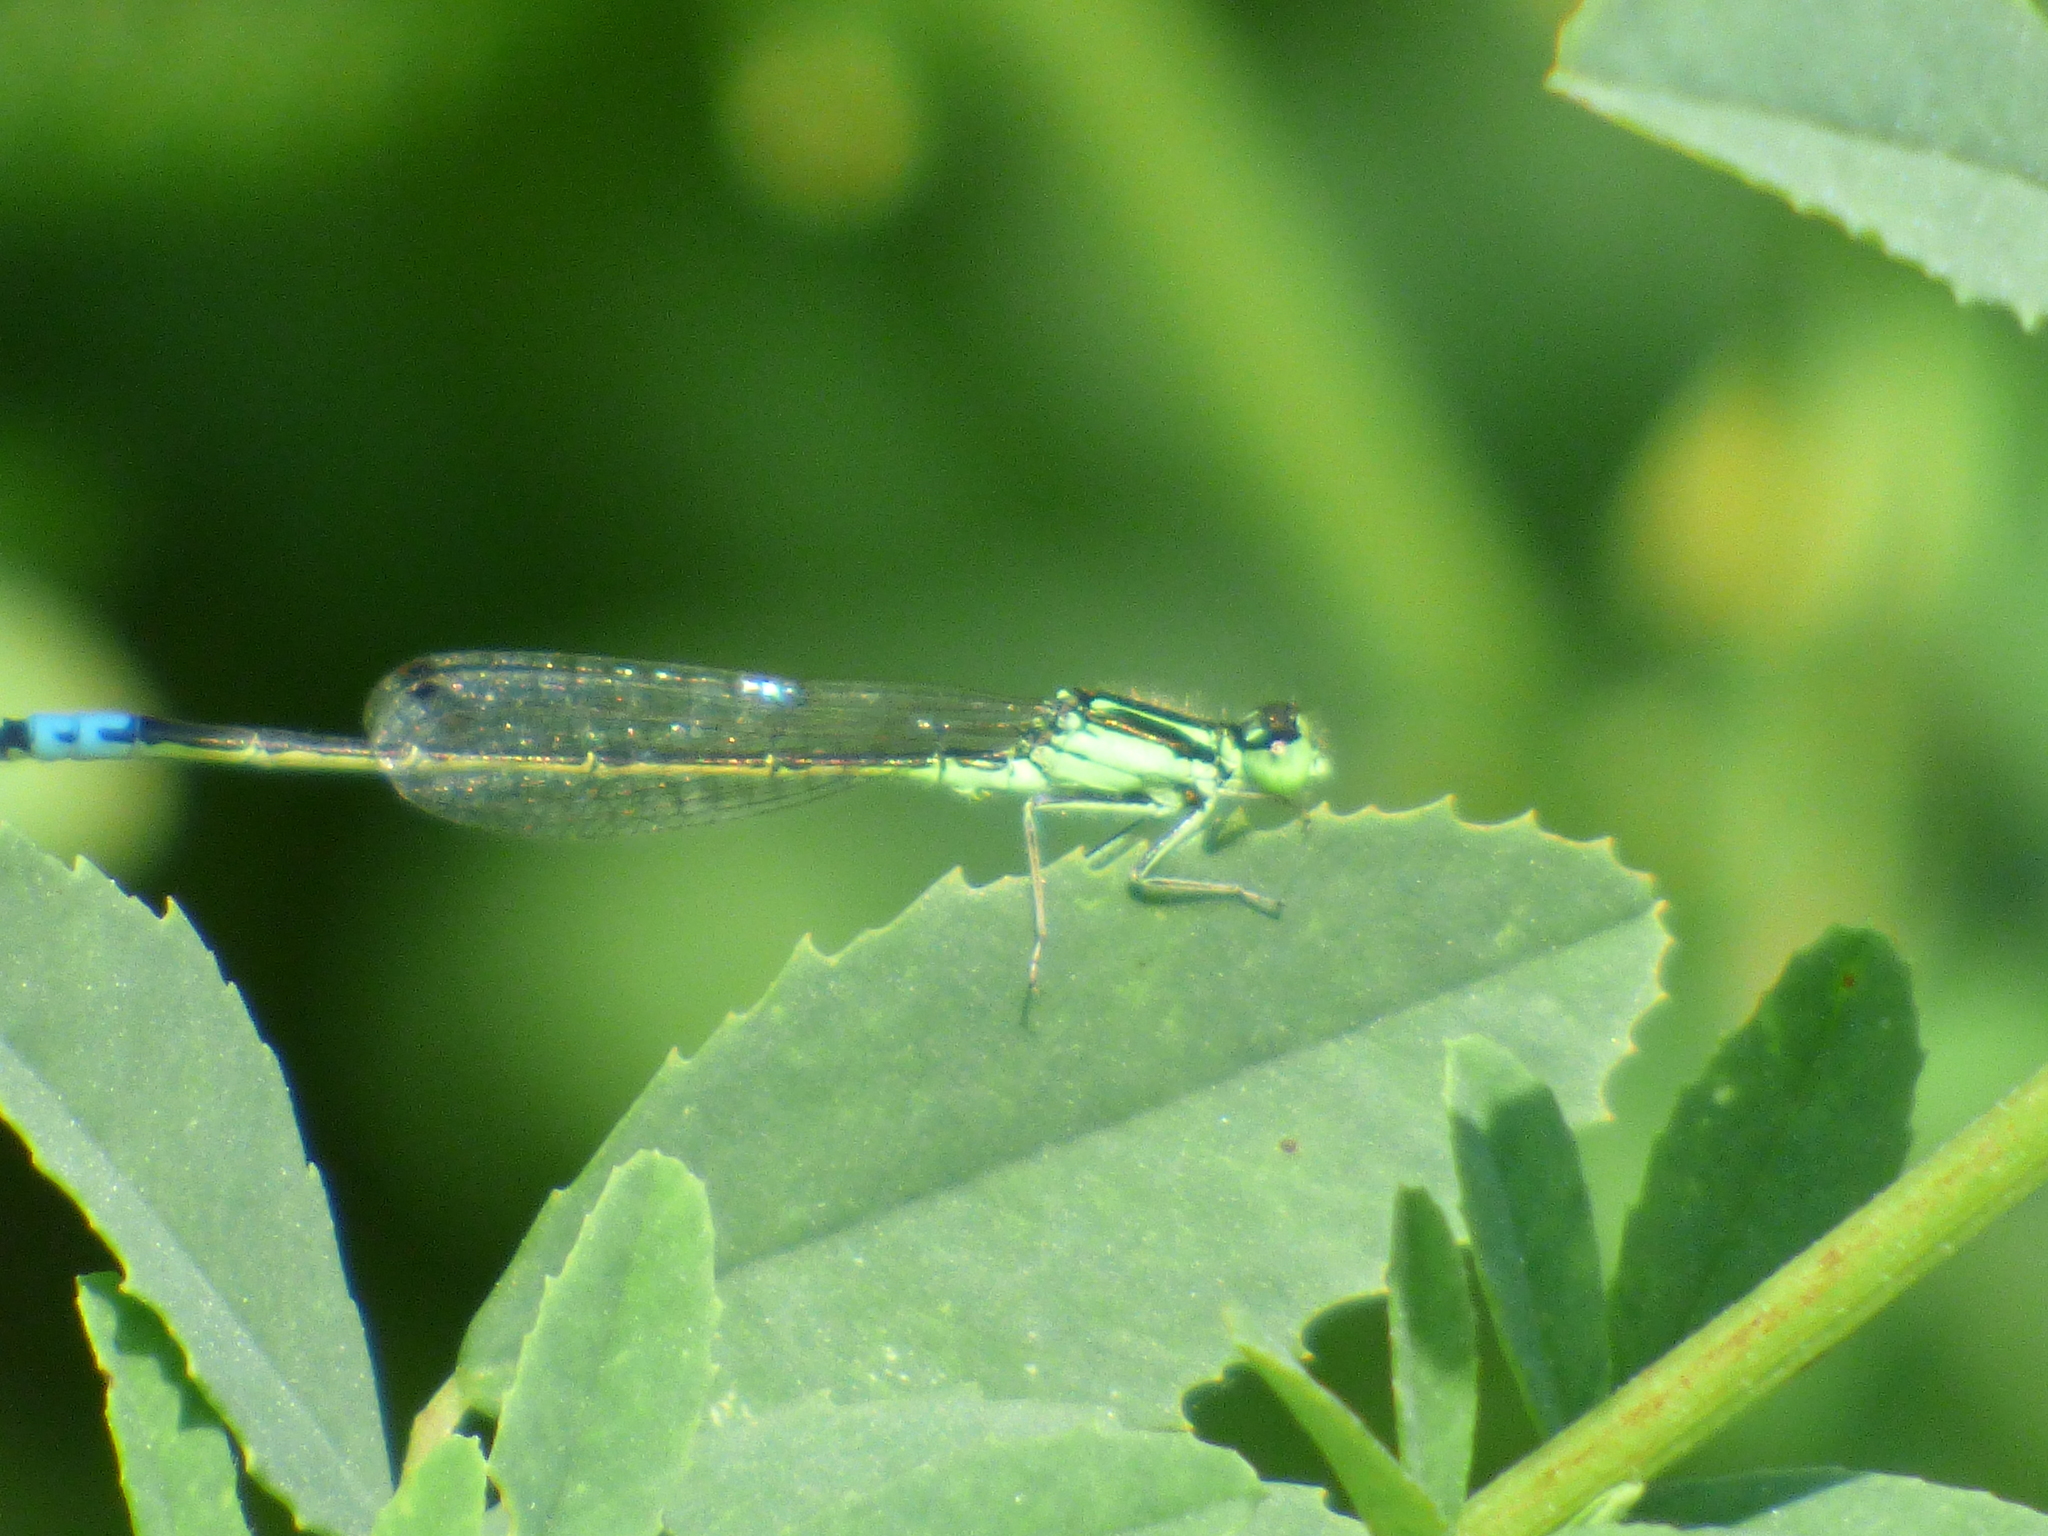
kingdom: Animalia
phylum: Arthropoda
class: Insecta
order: Odonata
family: Coenagrionidae
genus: Ischnura
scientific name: Ischnura verticalis
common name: Eastern forktail
